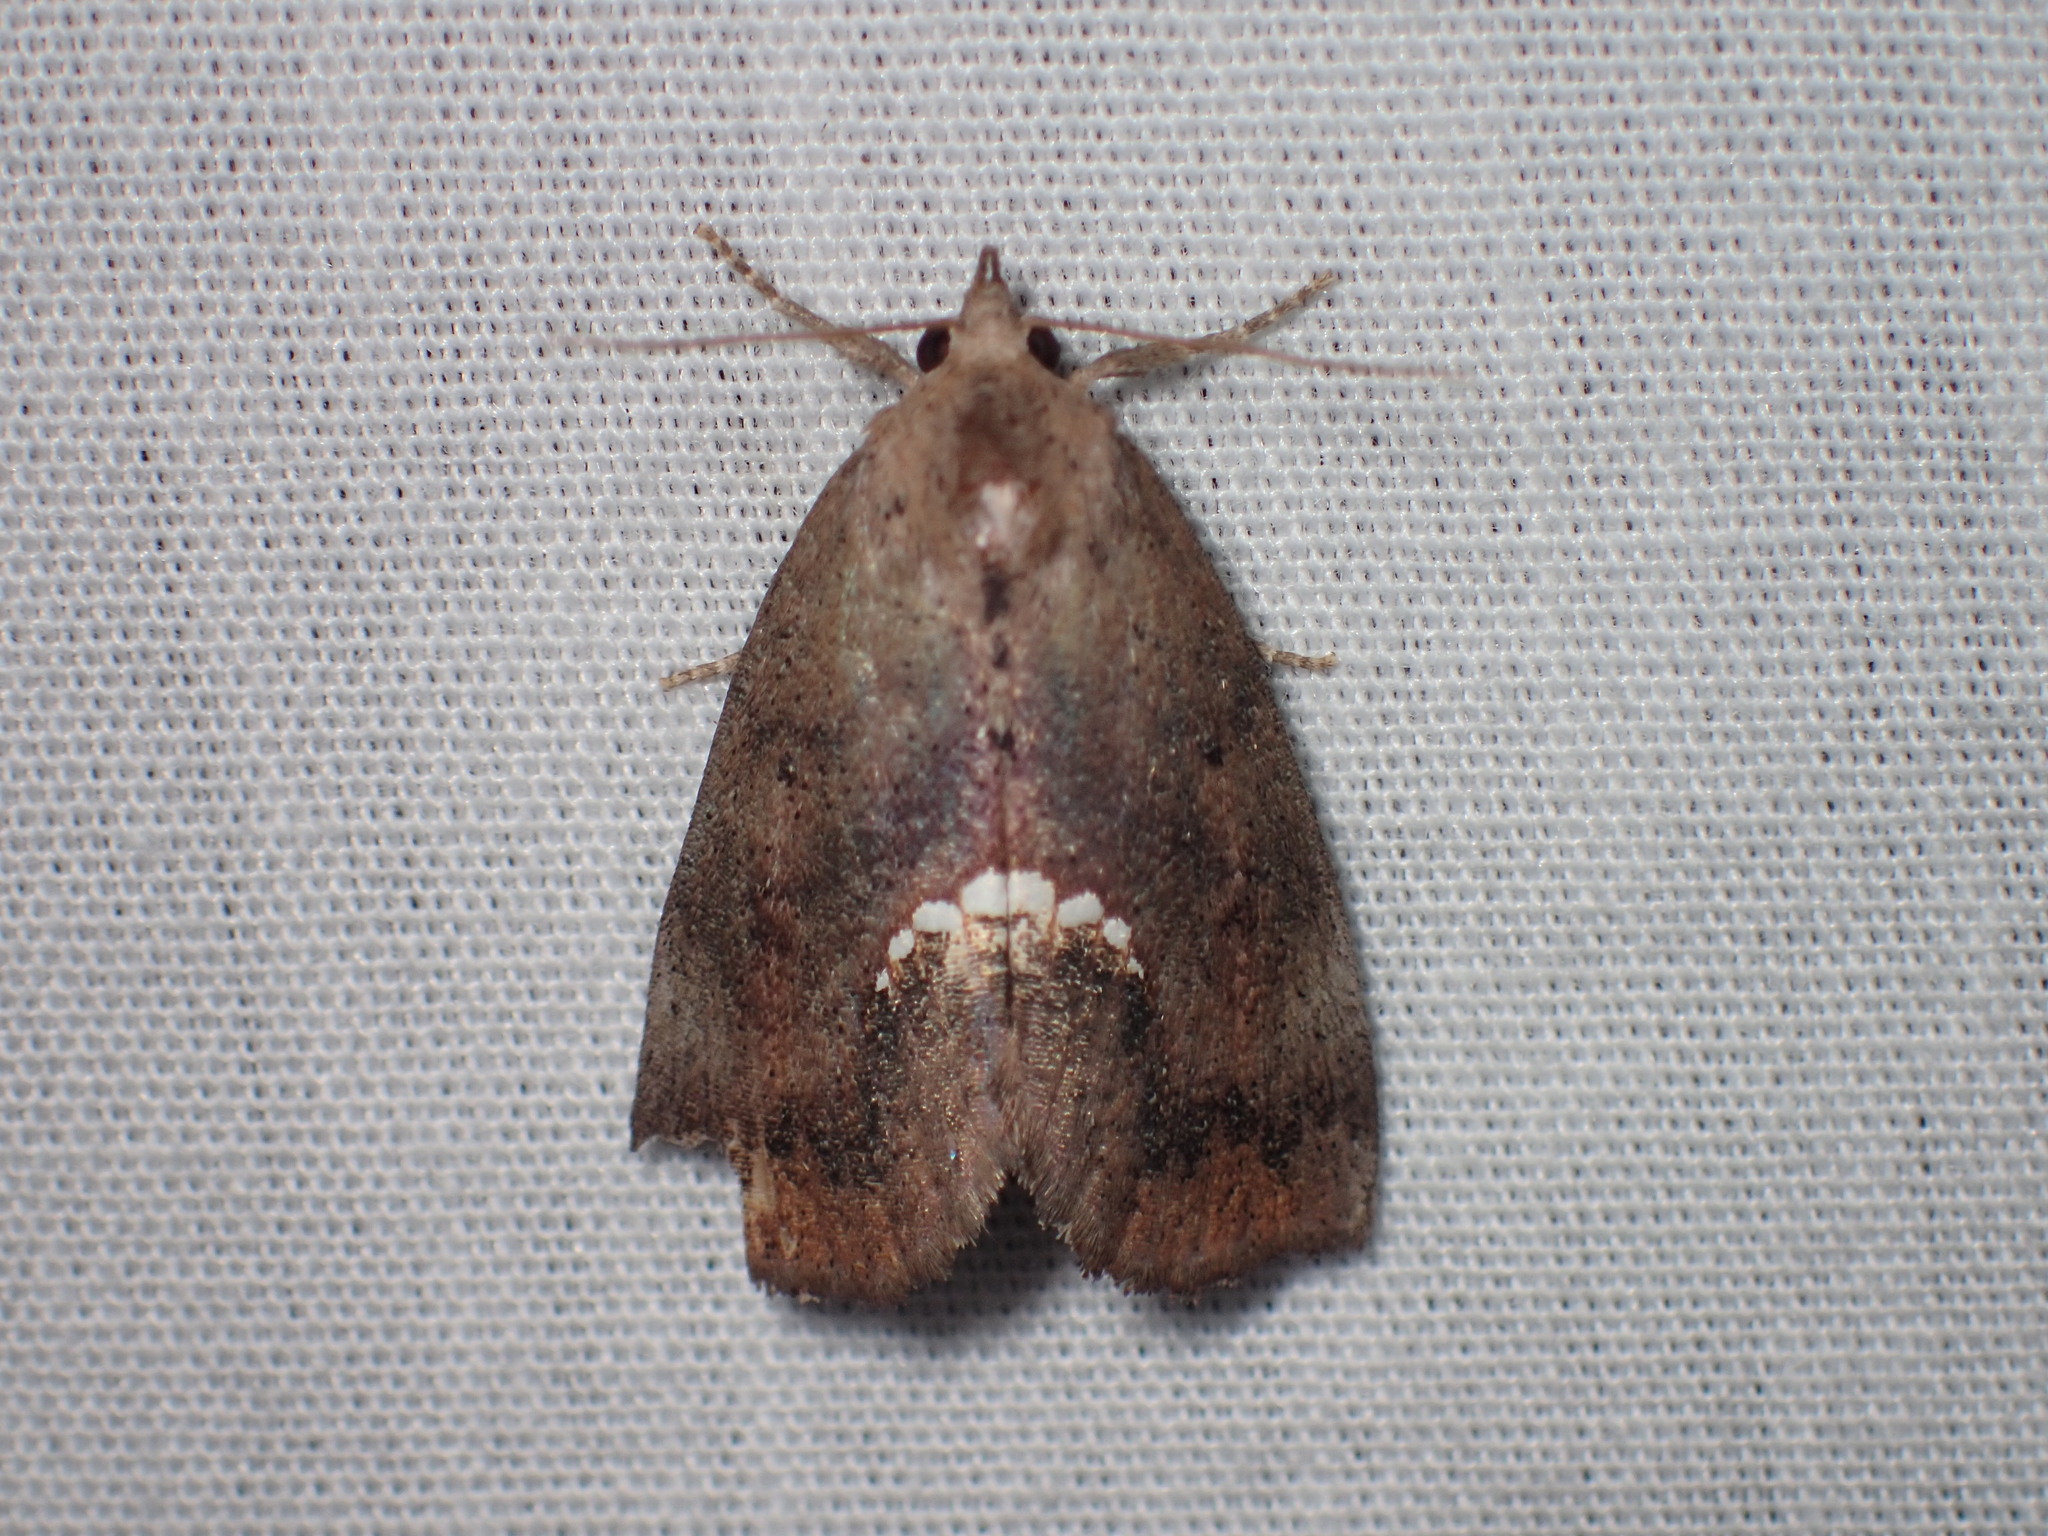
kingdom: Animalia
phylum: Arthropoda
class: Insecta
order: Lepidoptera
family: Erebidae
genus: Hypsoropha
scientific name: Hypsoropha hormos
